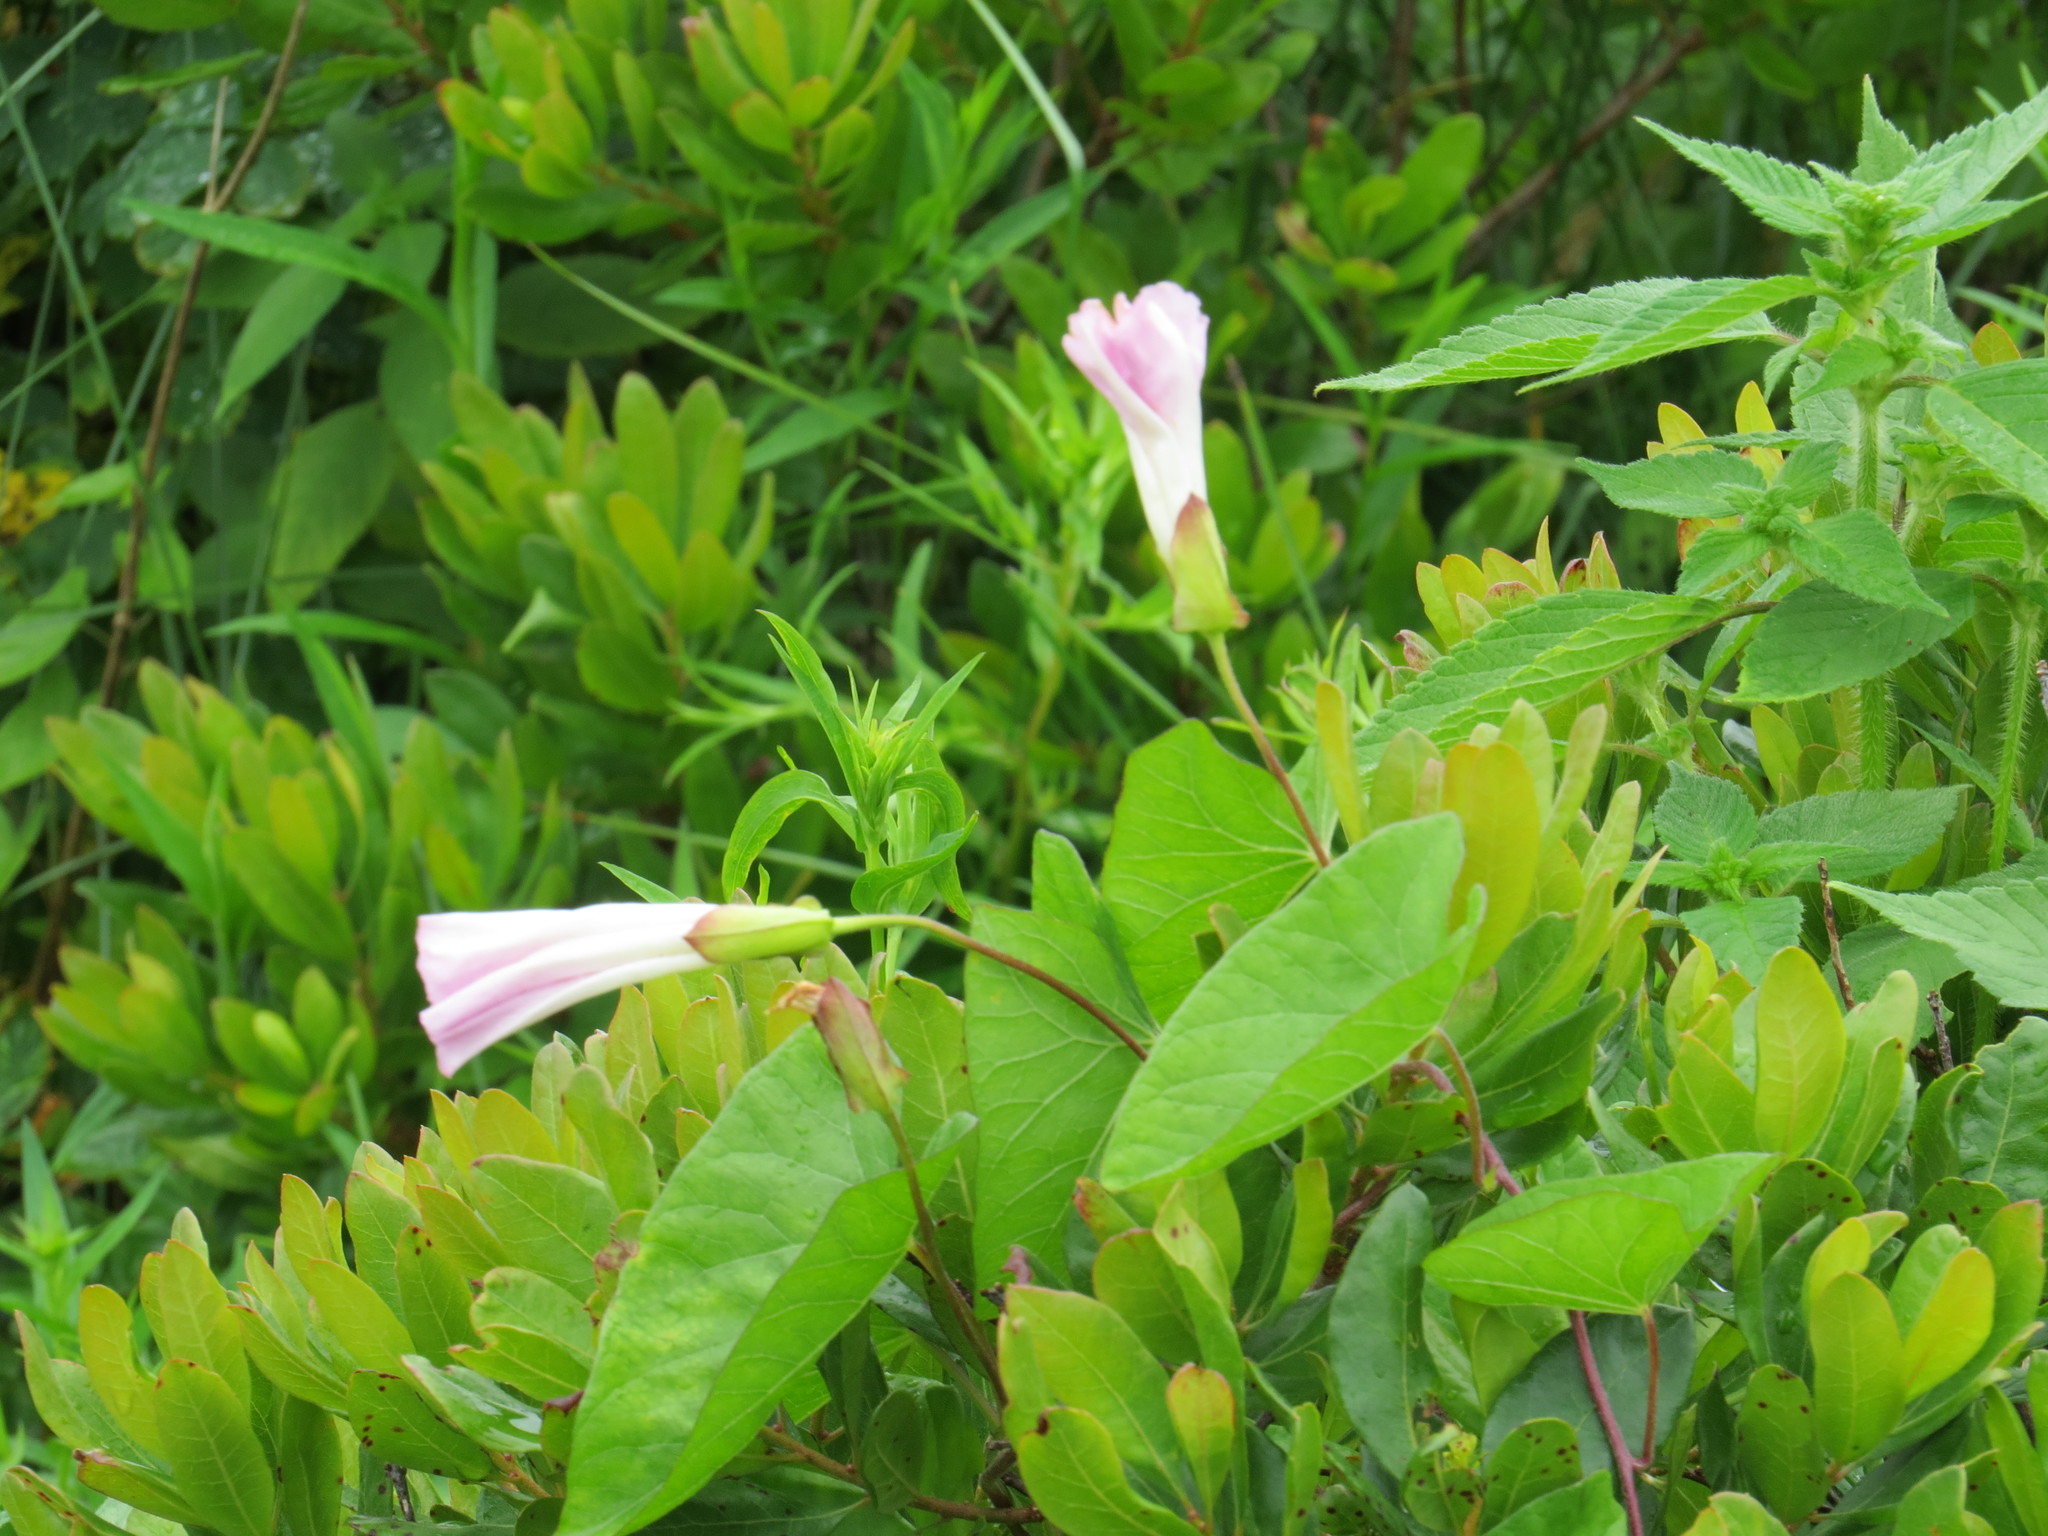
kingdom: Plantae
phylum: Tracheophyta
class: Magnoliopsida
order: Solanales
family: Convolvulaceae
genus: Calystegia
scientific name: Calystegia sepium
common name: Hedge bindweed
